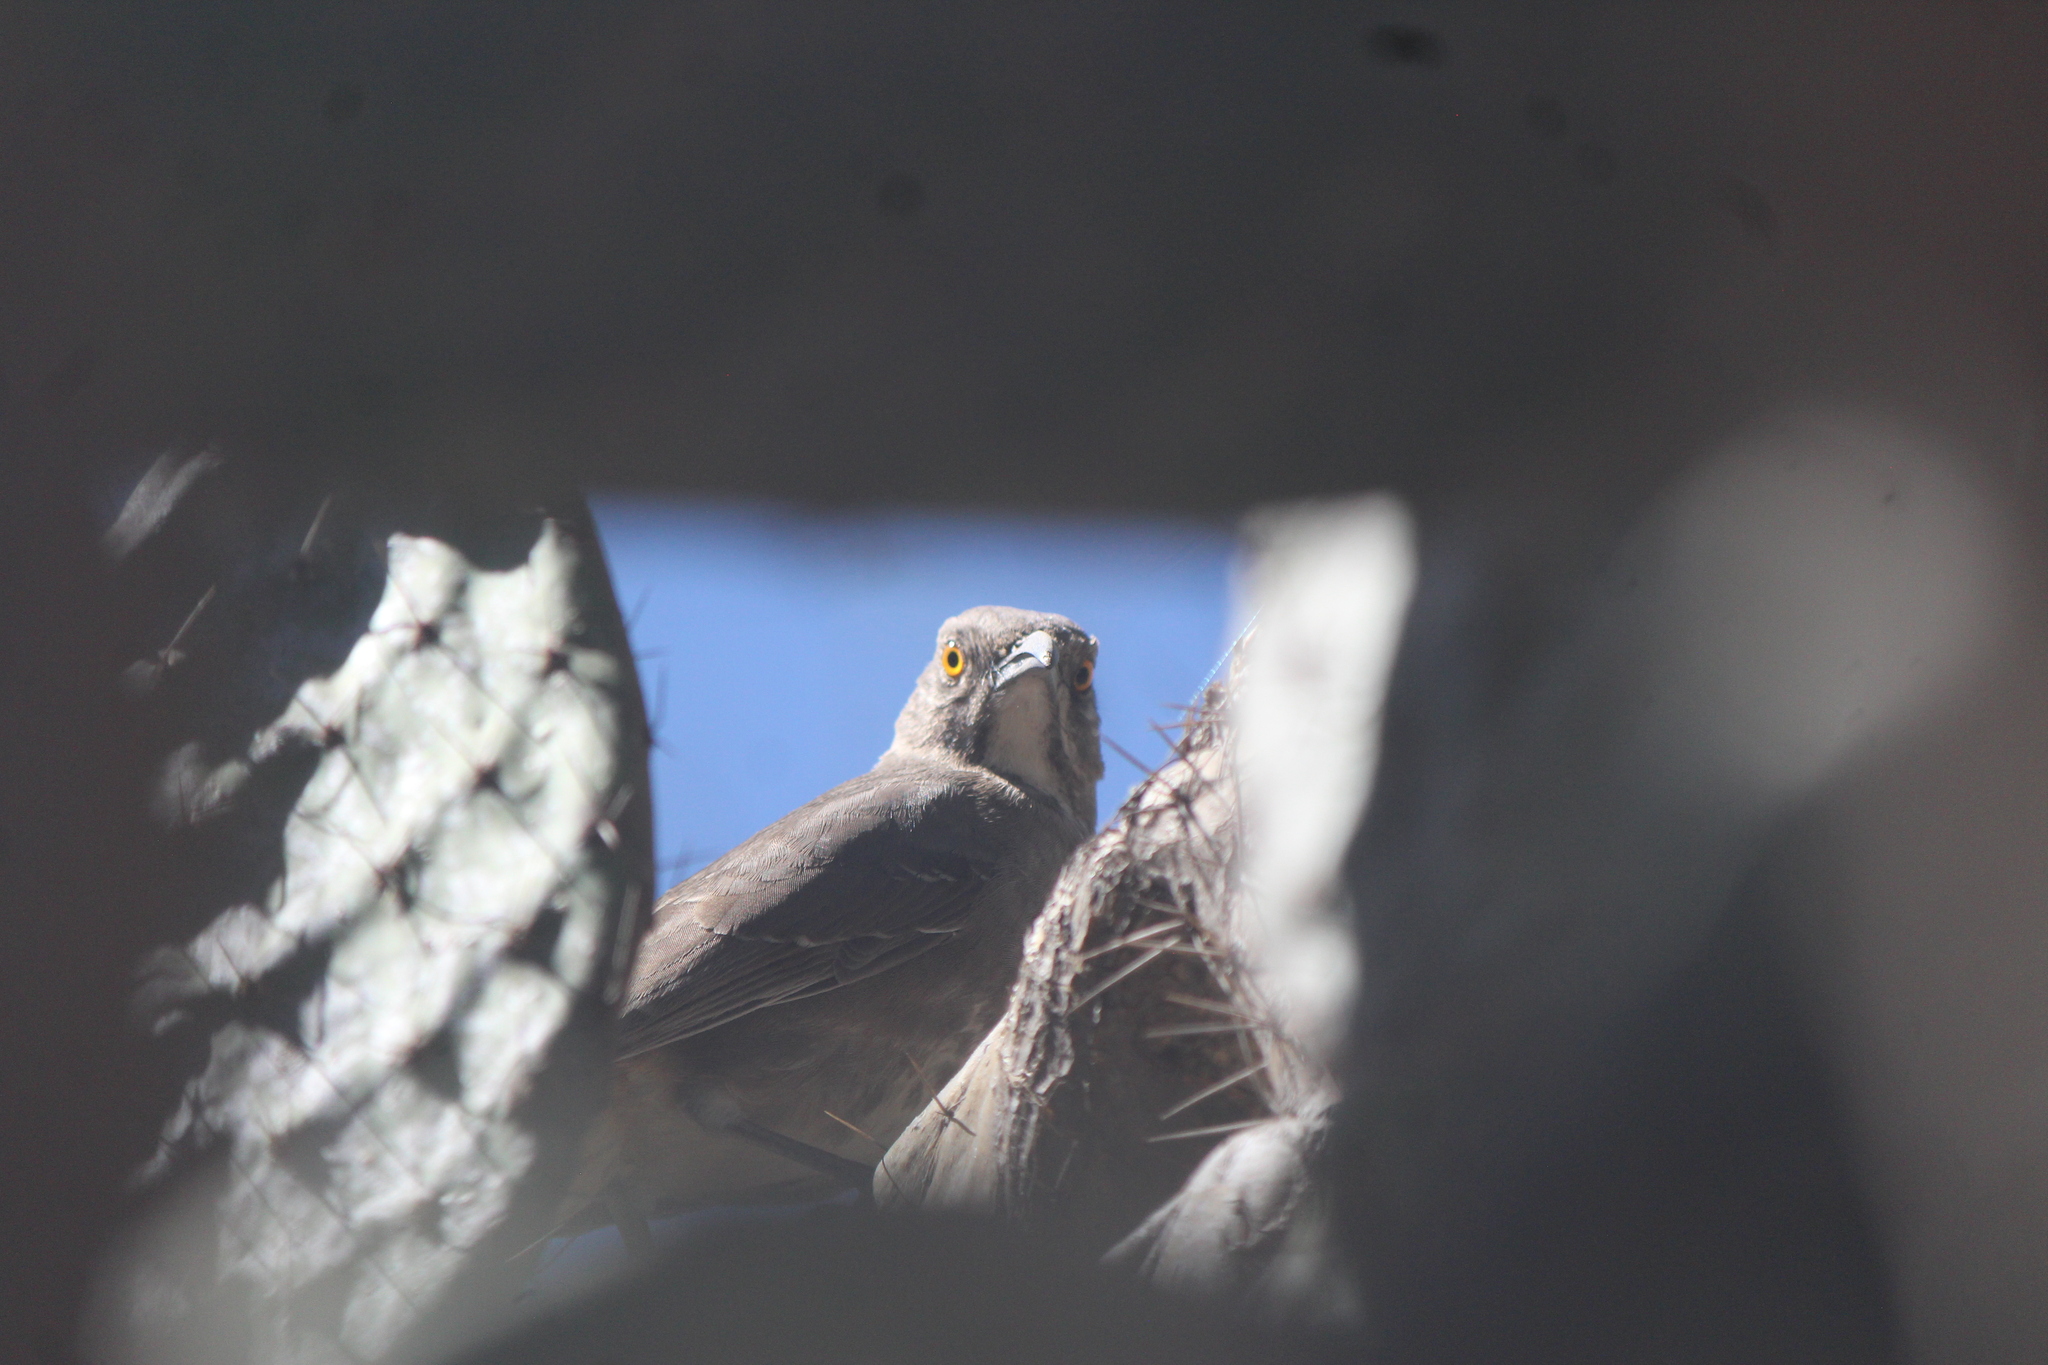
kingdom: Animalia
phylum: Chordata
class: Aves
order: Passeriformes
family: Mimidae
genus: Toxostoma
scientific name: Toxostoma curvirostre
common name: Curve-billed thrasher
